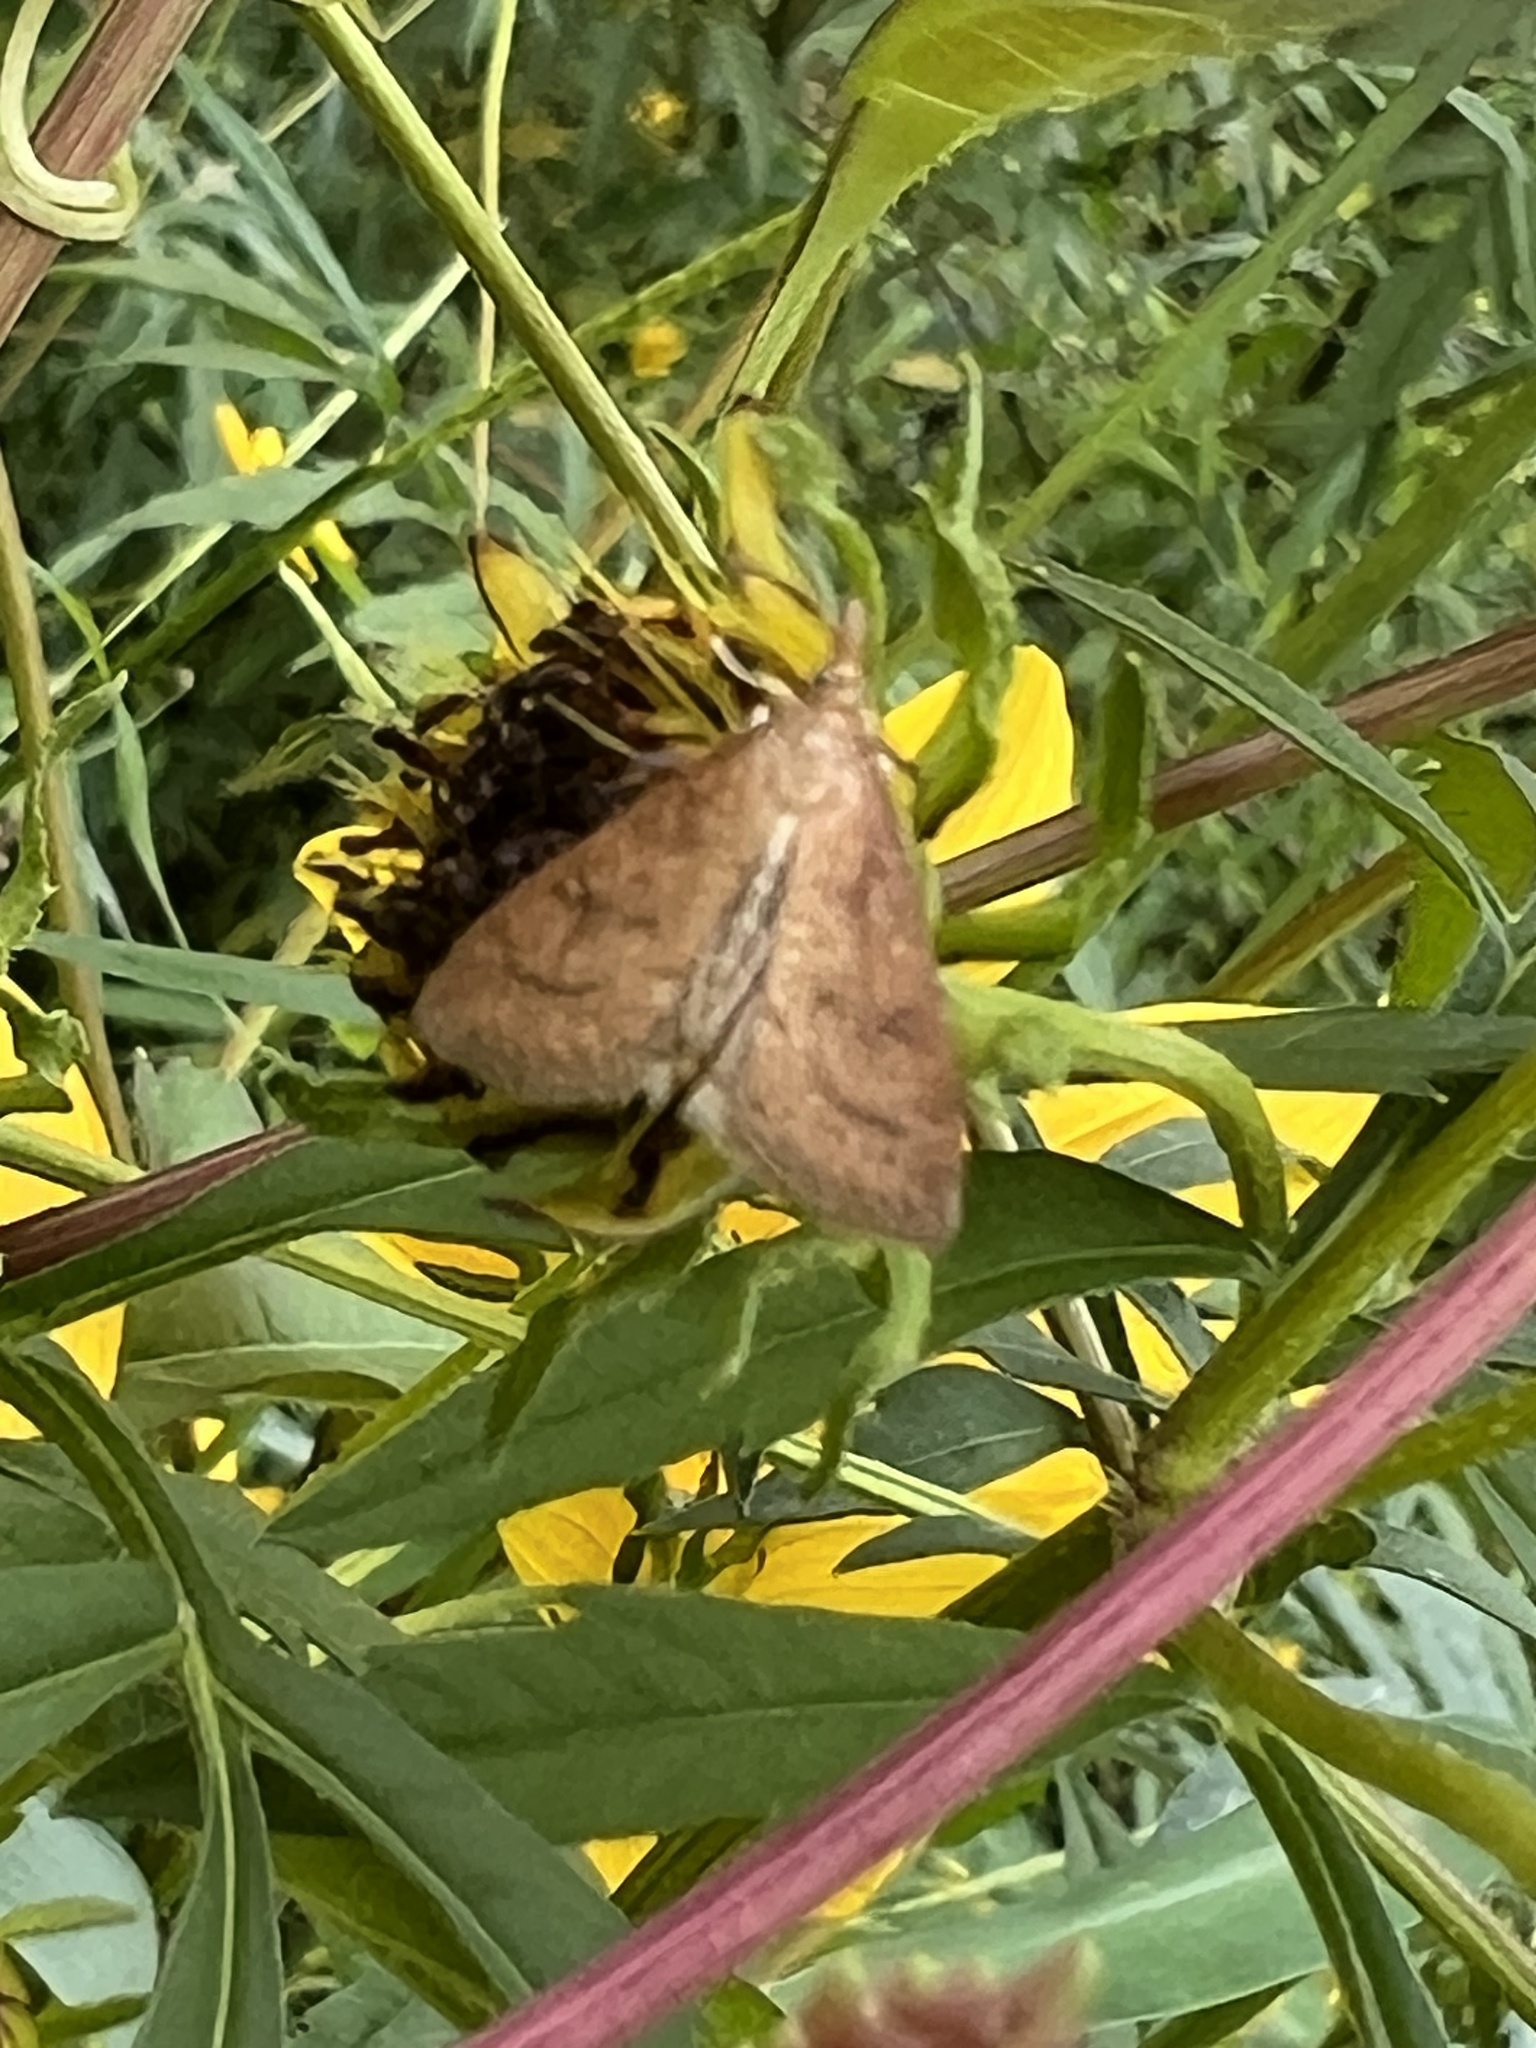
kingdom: Animalia
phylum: Arthropoda
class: Insecta
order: Lepidoptera
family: Crambidae
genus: Udea
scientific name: Udea rubigalis
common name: Celery leaftier moth
